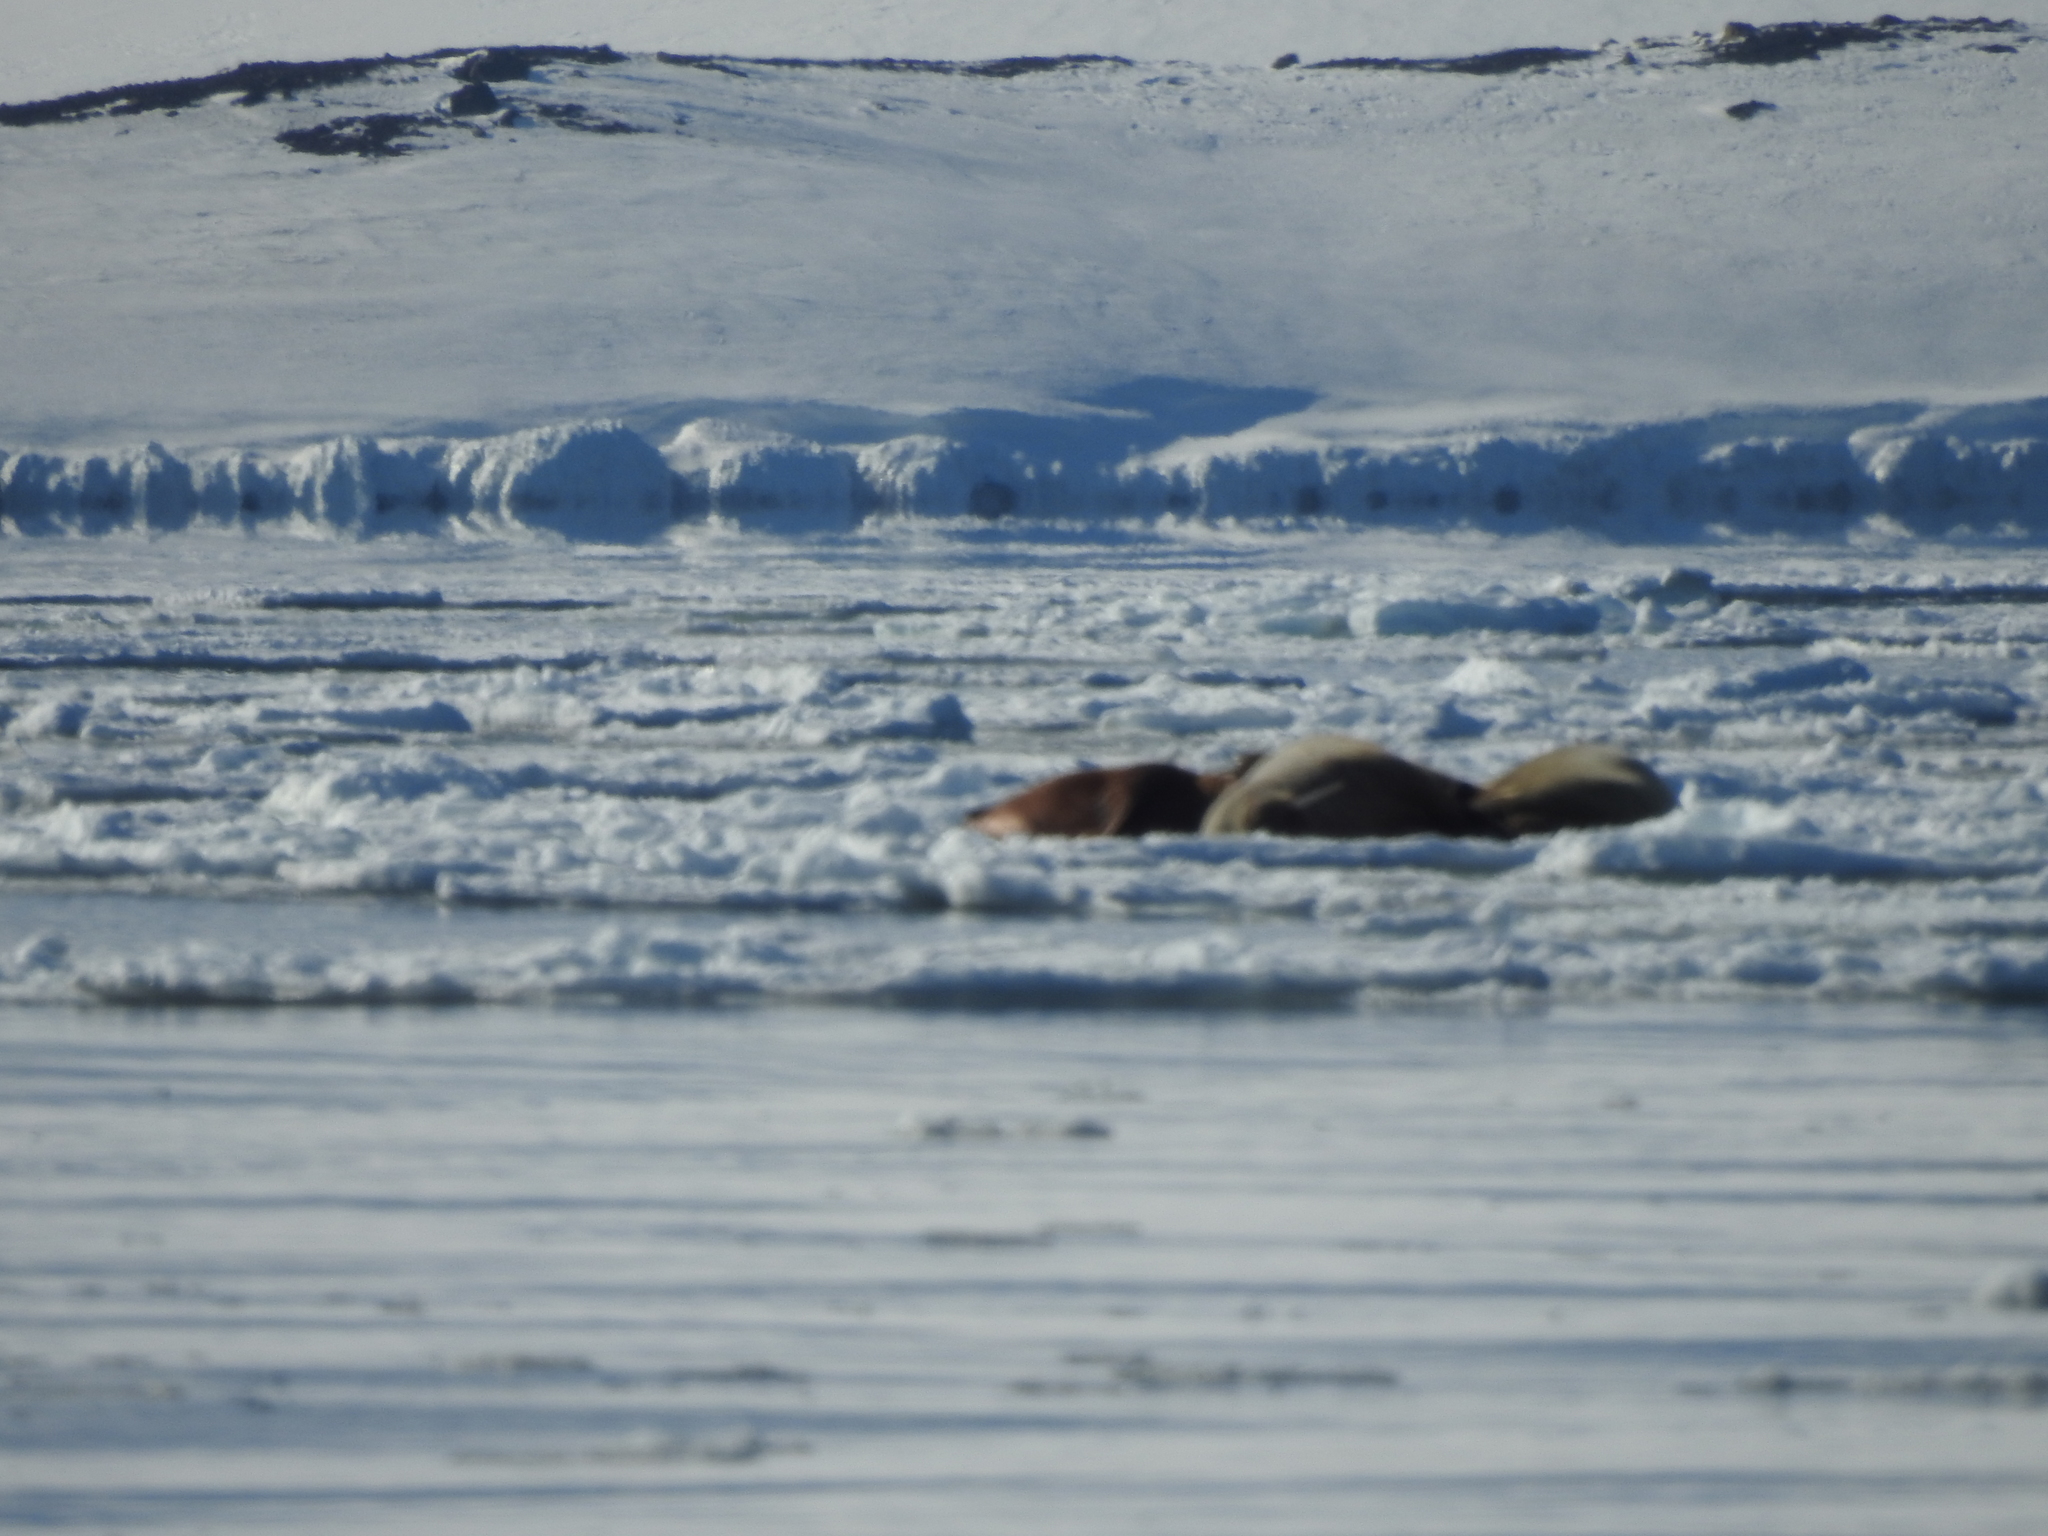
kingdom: Animalia
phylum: Chordata
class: Mammalia
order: Carnivora
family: Odobenidae
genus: Odobenus
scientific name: Odobenus rosmarus
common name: Walrus
